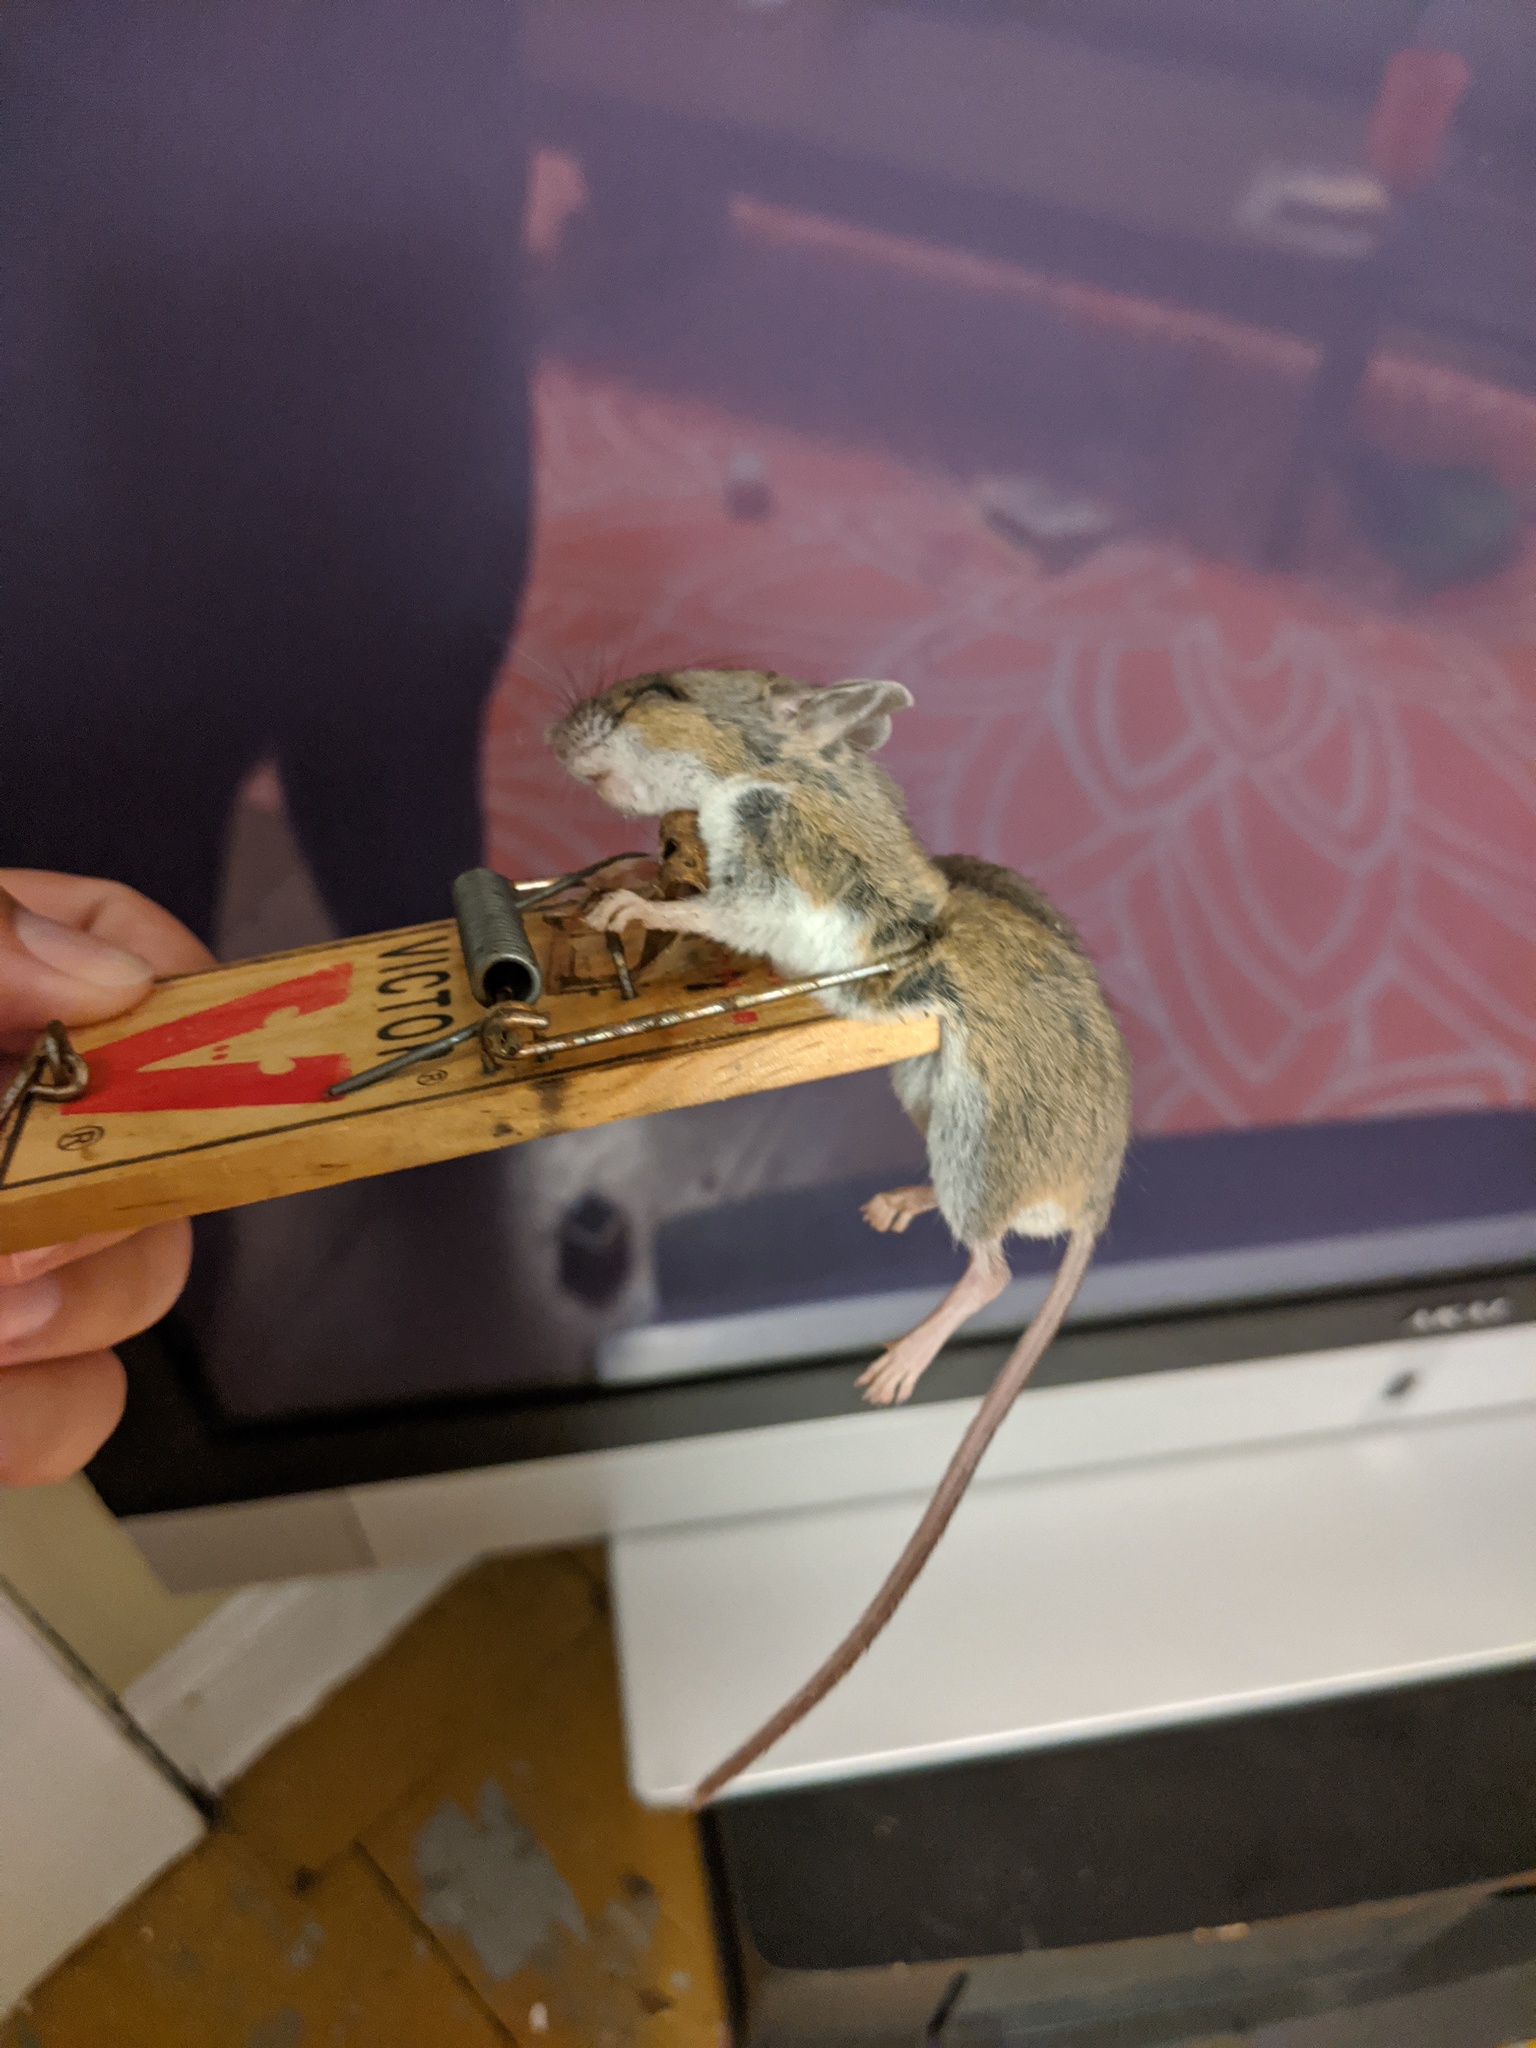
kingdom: Animalia
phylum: Chordata
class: Mammalia
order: Rodentia
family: Cricetidae
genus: Peromyscus
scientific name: Peromyscus maniculatus
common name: Deer mouse
